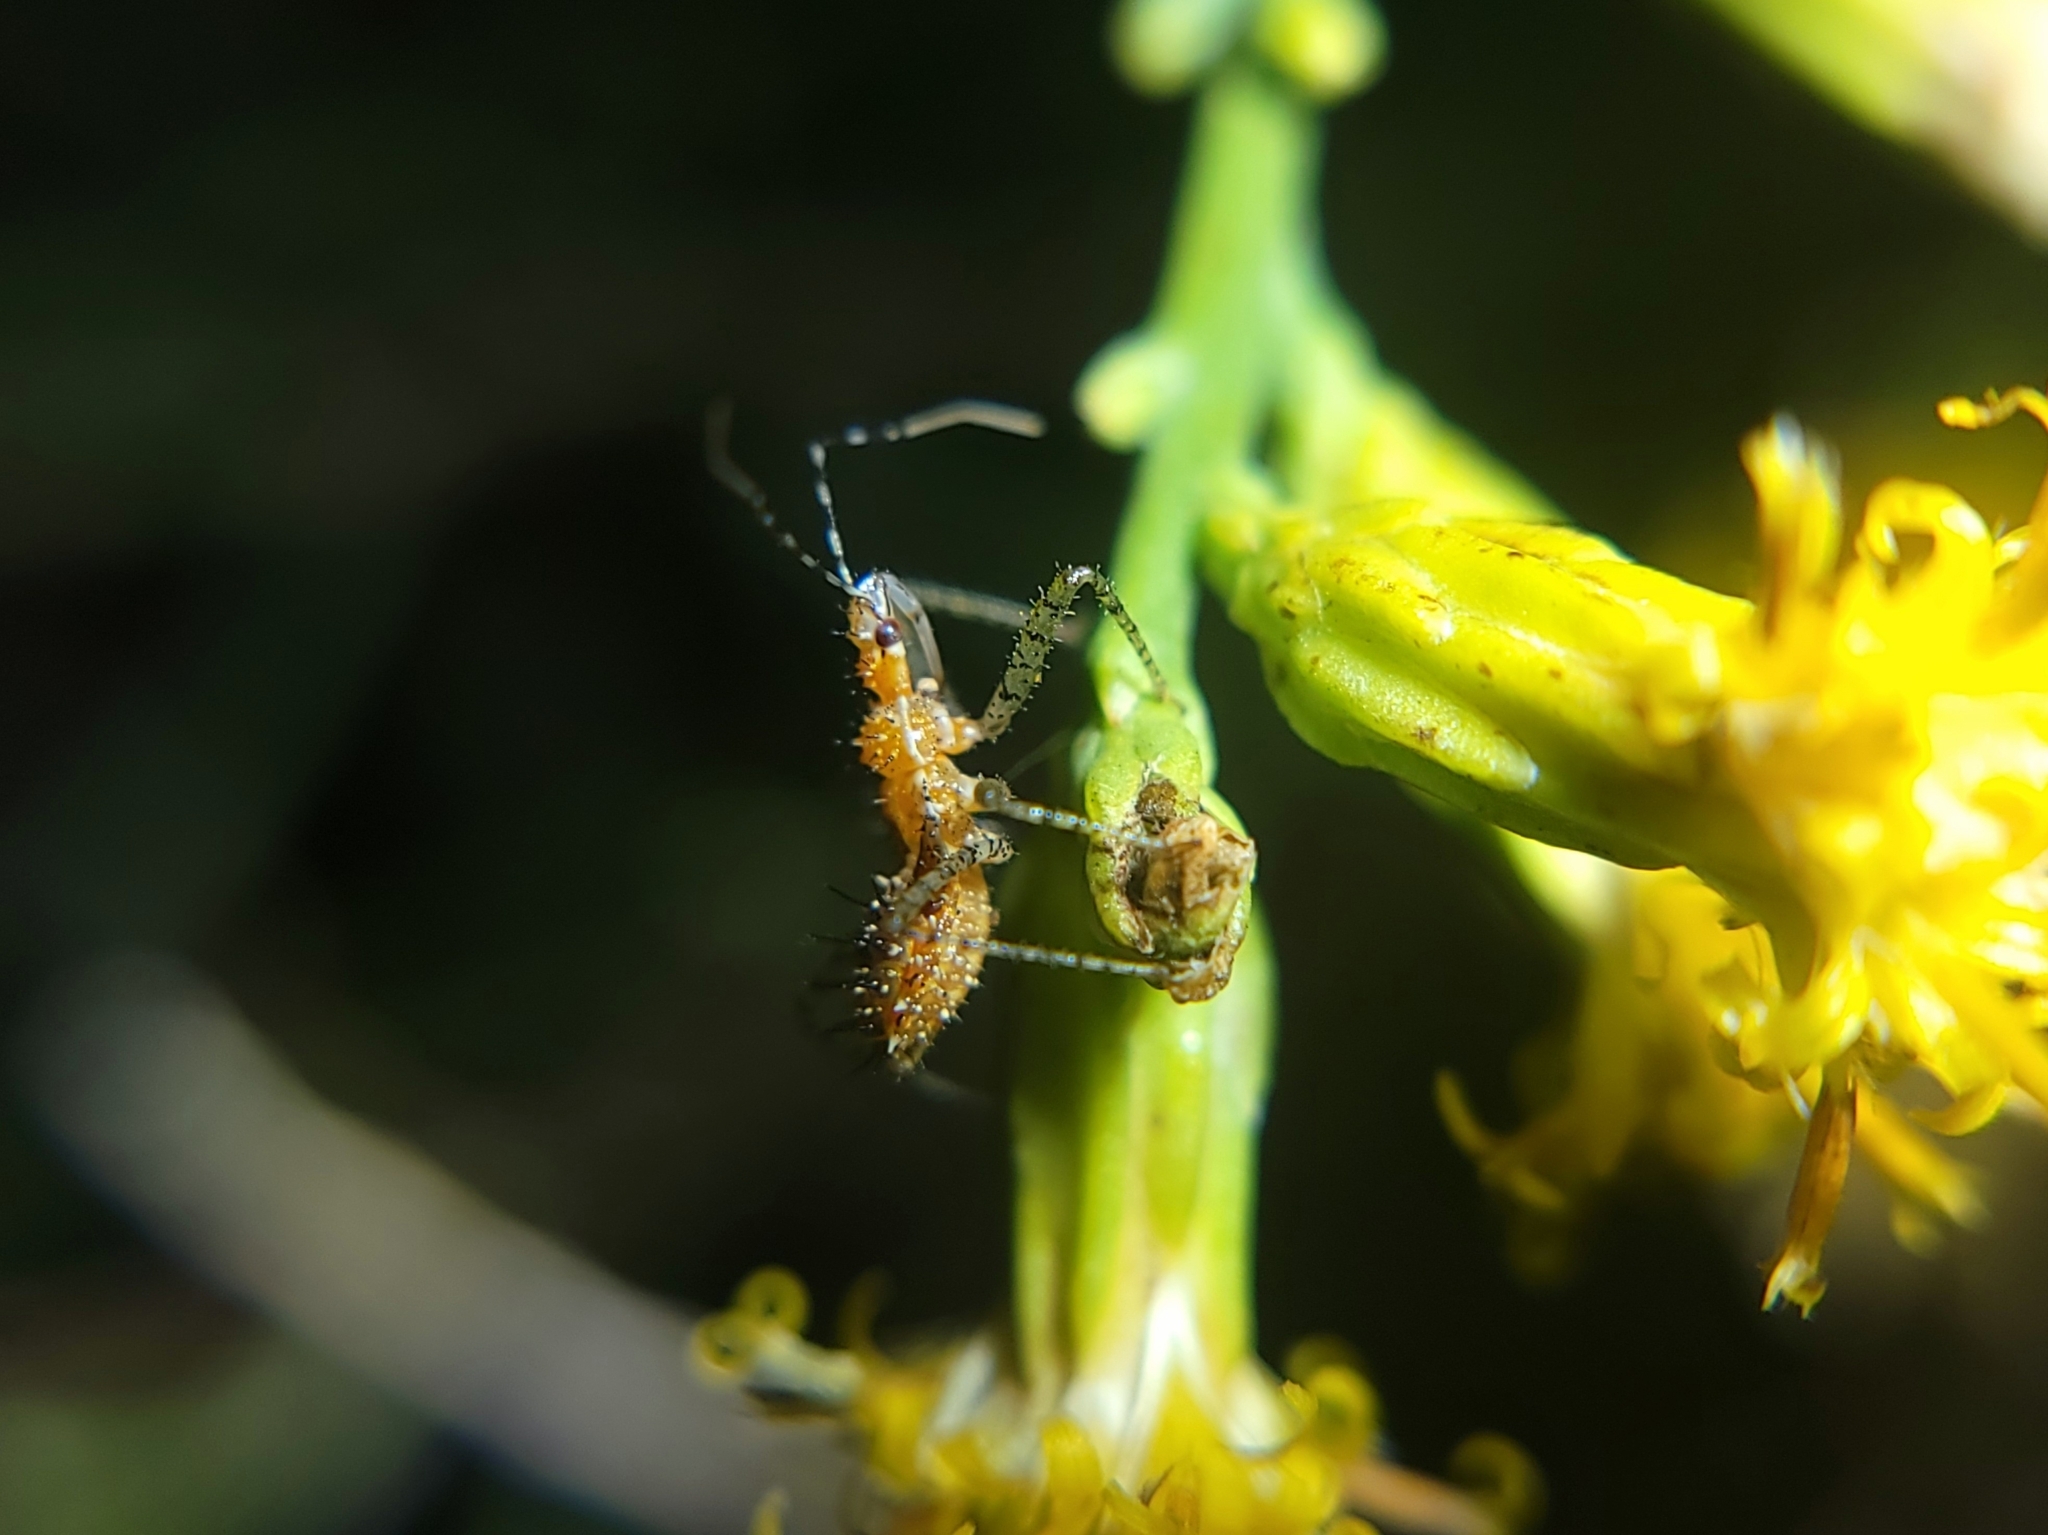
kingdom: Animalia
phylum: Arthropoda
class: Insecta
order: Hemiptera
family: Reduviidae
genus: Zelus
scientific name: Zelus renardii
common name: Assassin bug
